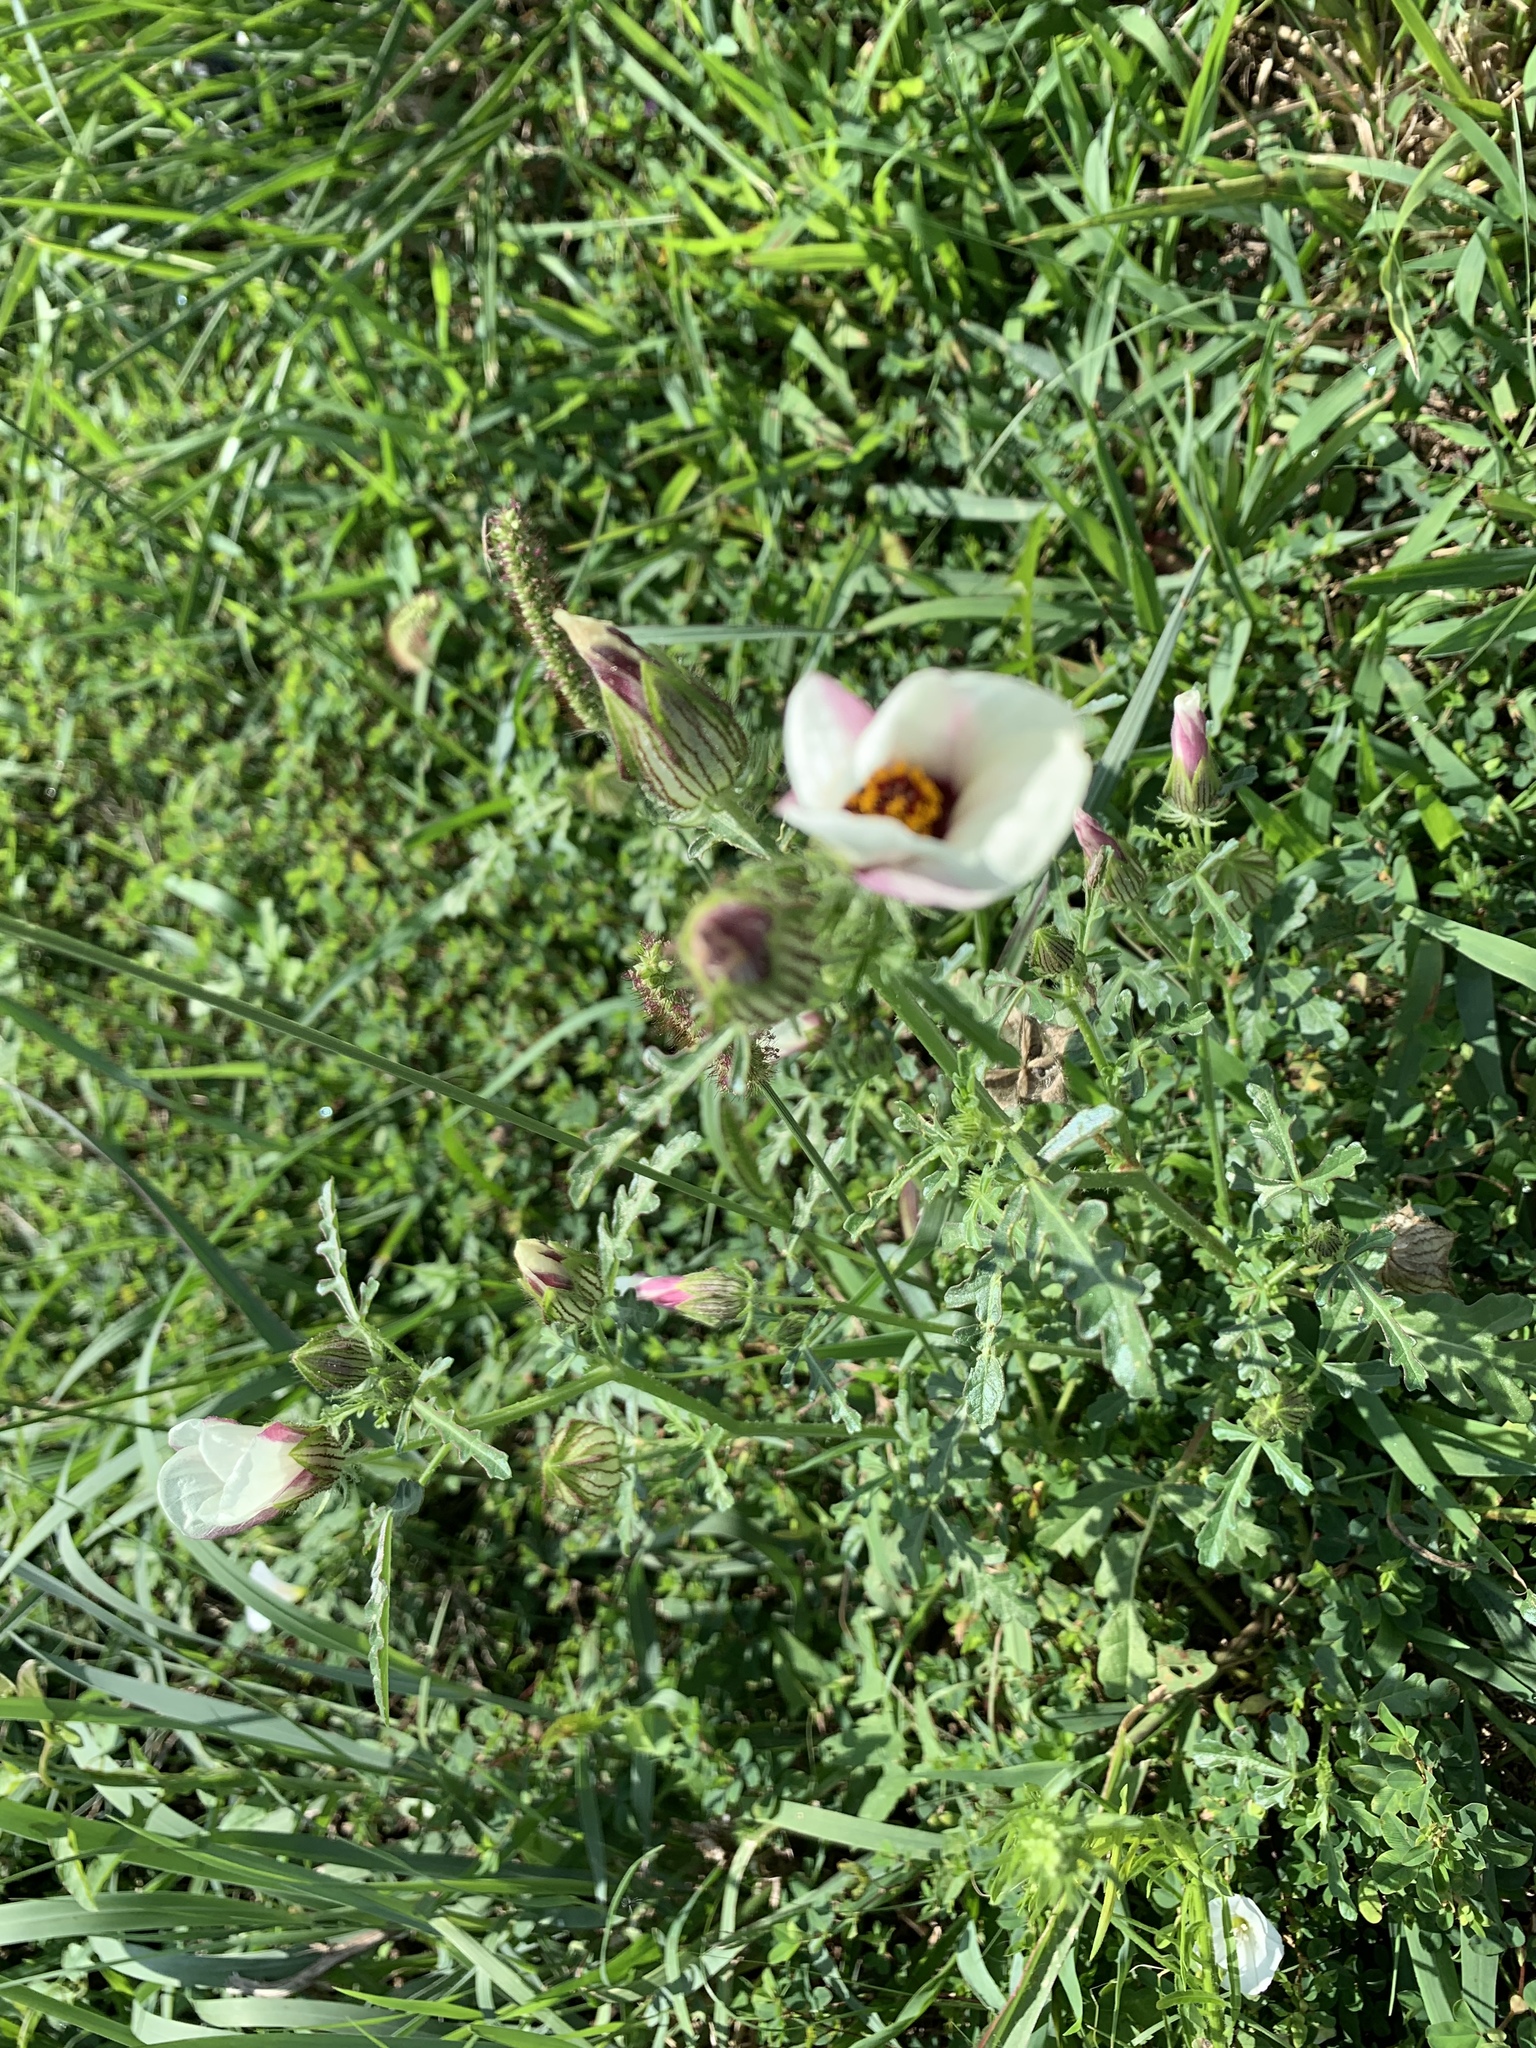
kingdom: Plantae
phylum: Tracheophyta
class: Magnoliopsida
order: Malvales
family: Malvaceae
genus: Hibiscus
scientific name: Hibiscus trionum
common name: Bladder ketmia
